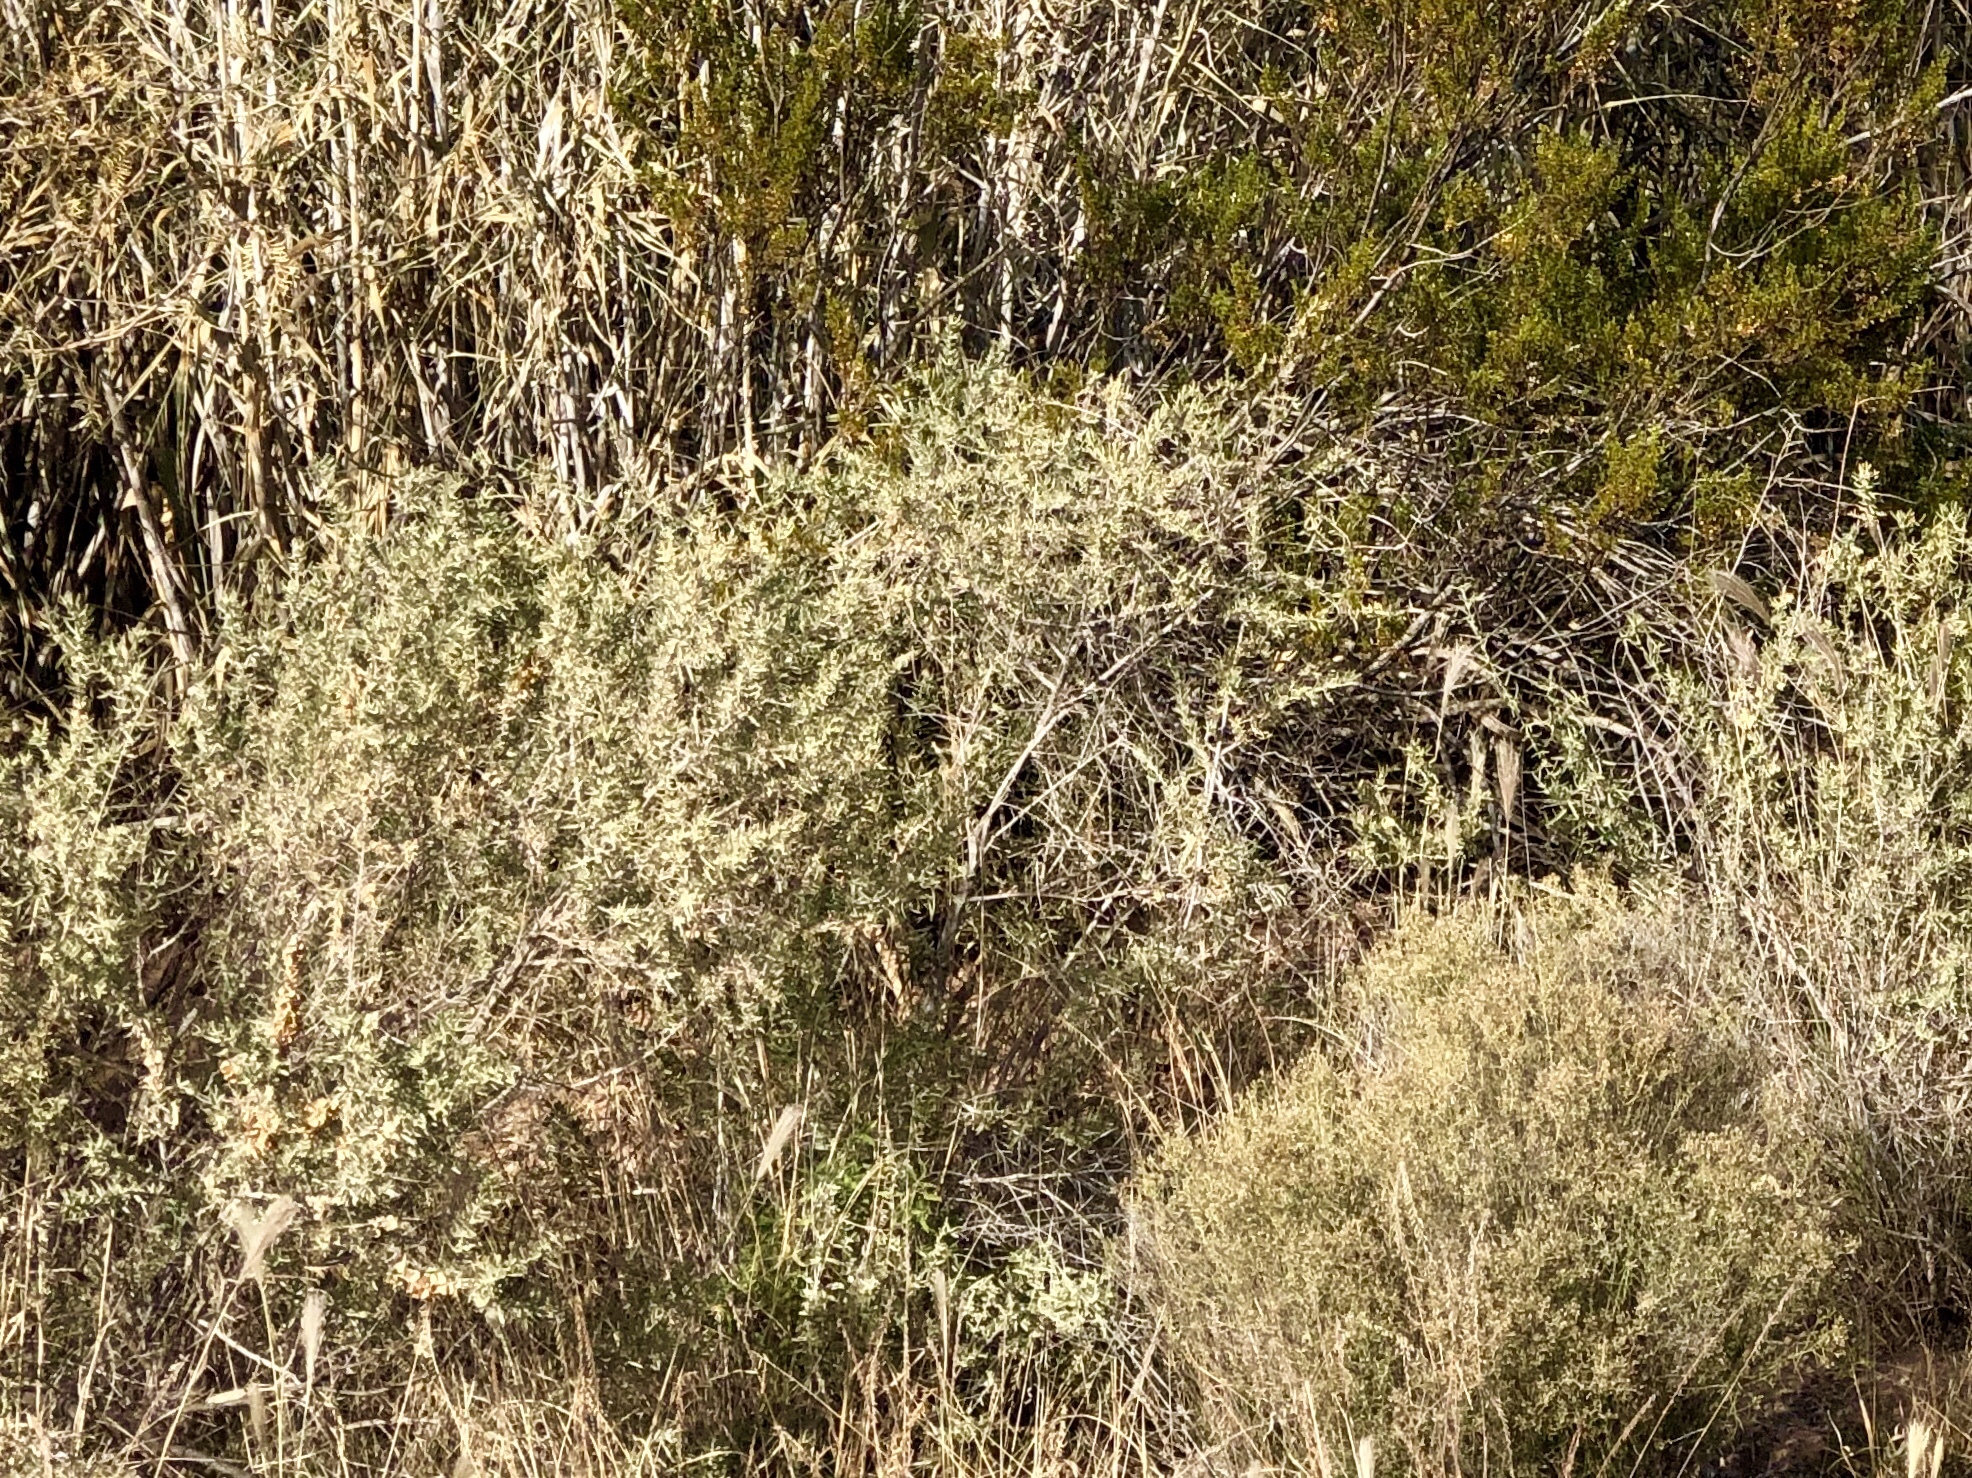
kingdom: Plantae
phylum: Tracheophyta
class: Magnoliopsida
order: Caryophyllales
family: Amaranthaceae
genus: Atriplex
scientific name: Atriplex canescens
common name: Four-wing saltbush
